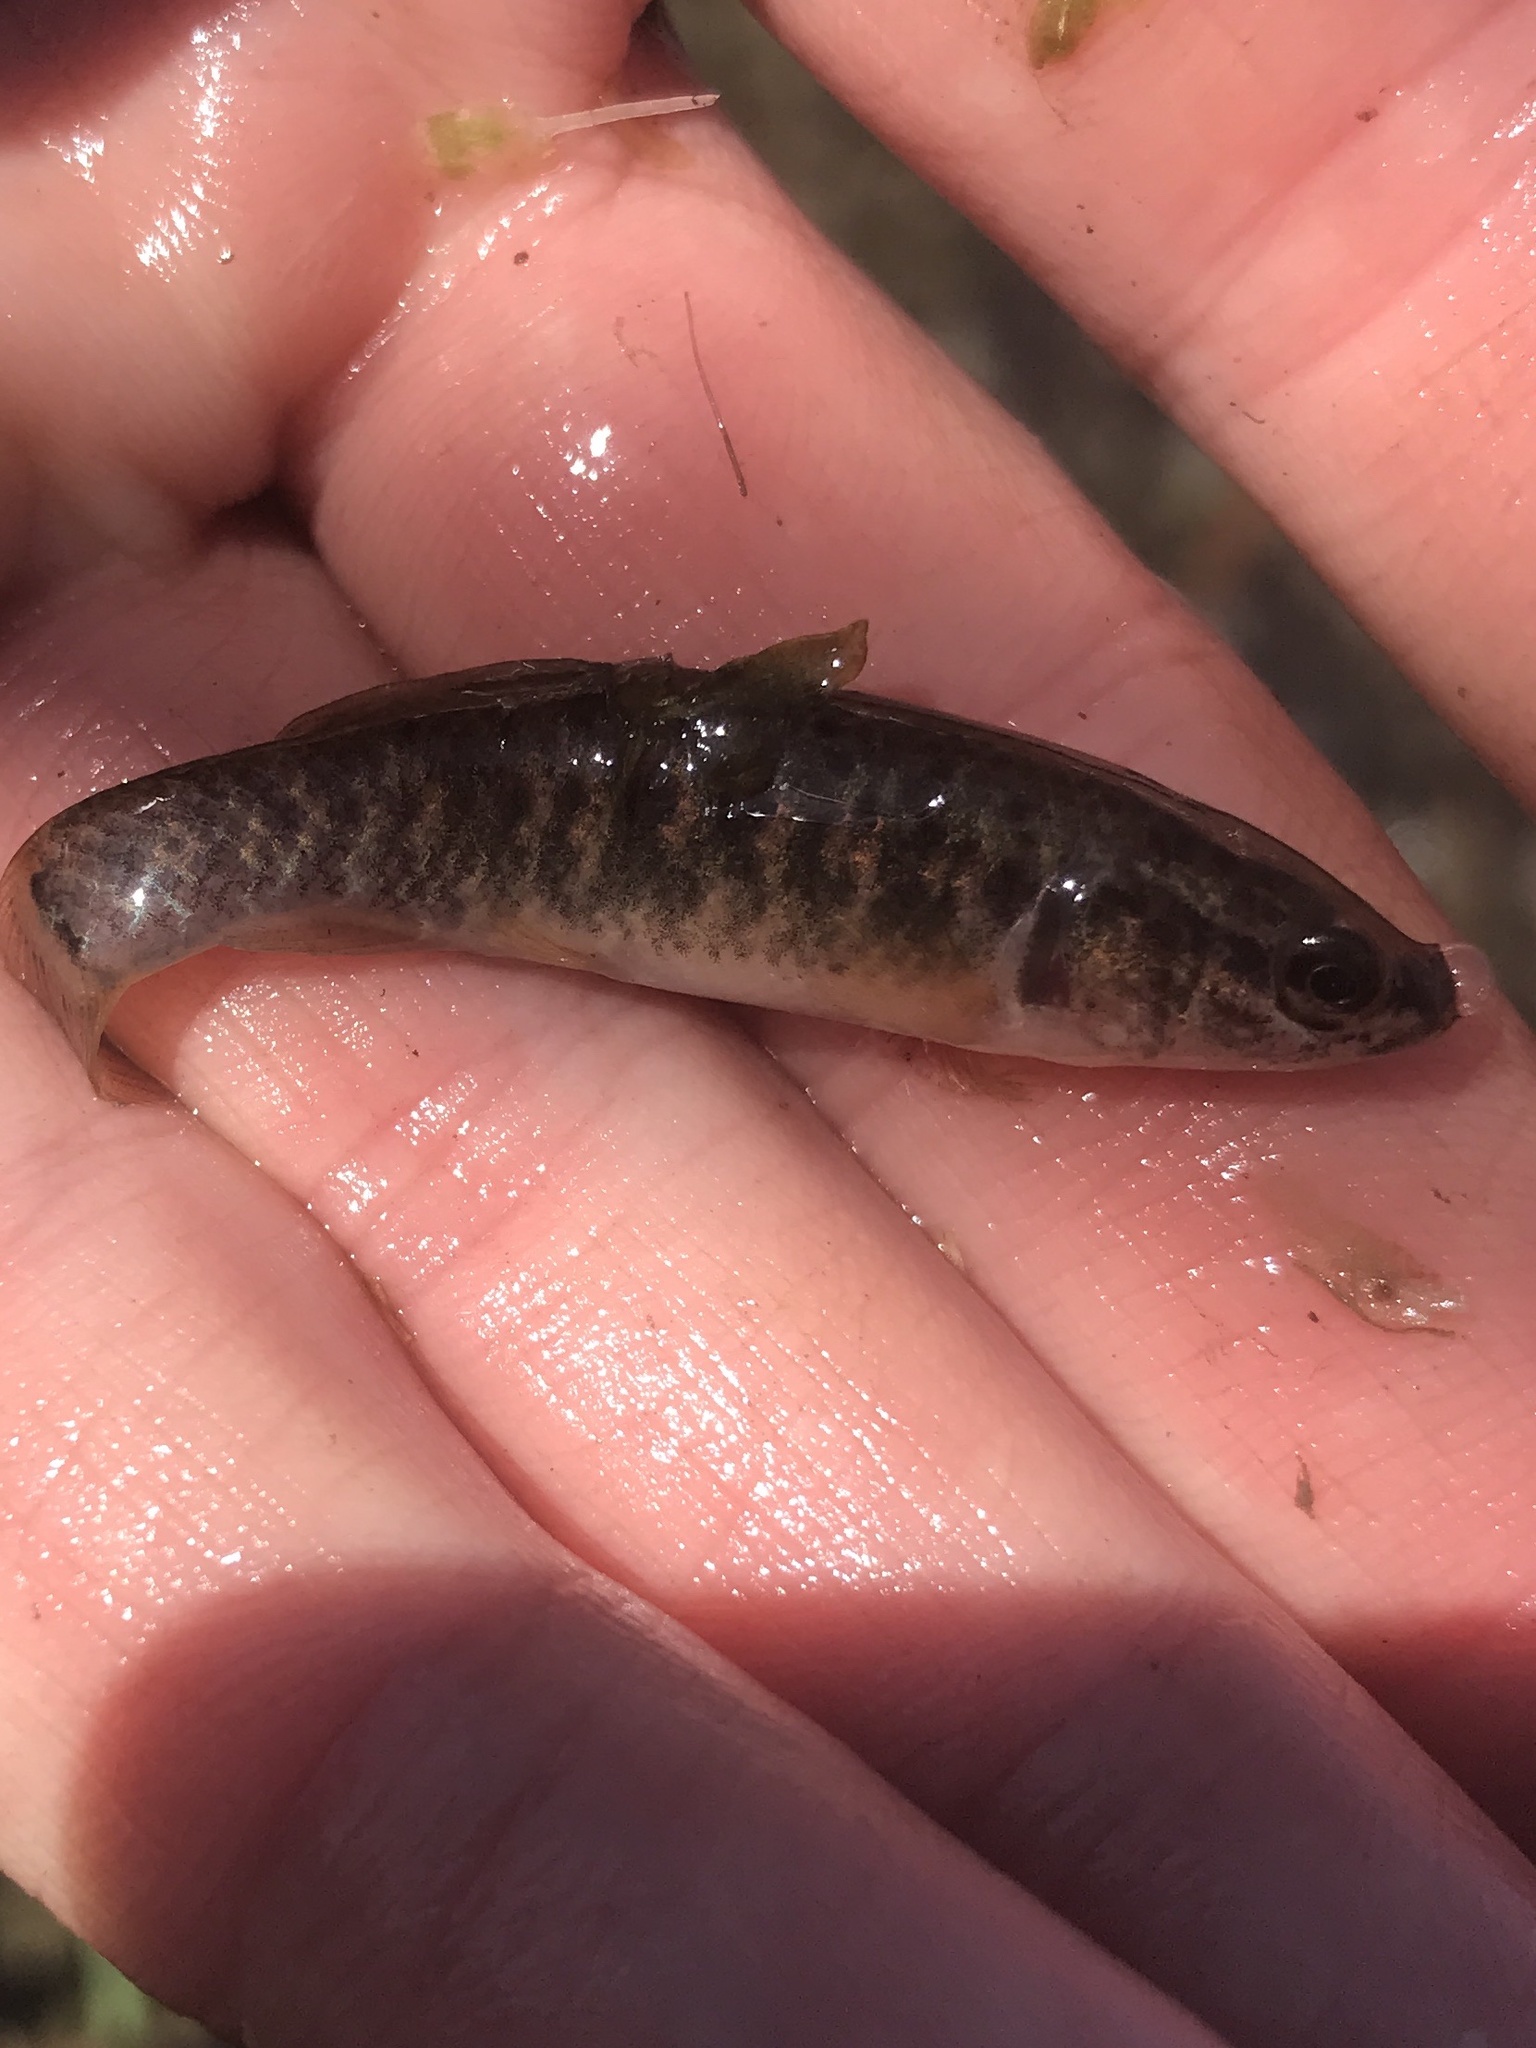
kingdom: Animalia
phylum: Chordata
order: Esociformes
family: Umbridae
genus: Umbra
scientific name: Umbra limi
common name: Central mudminnow
